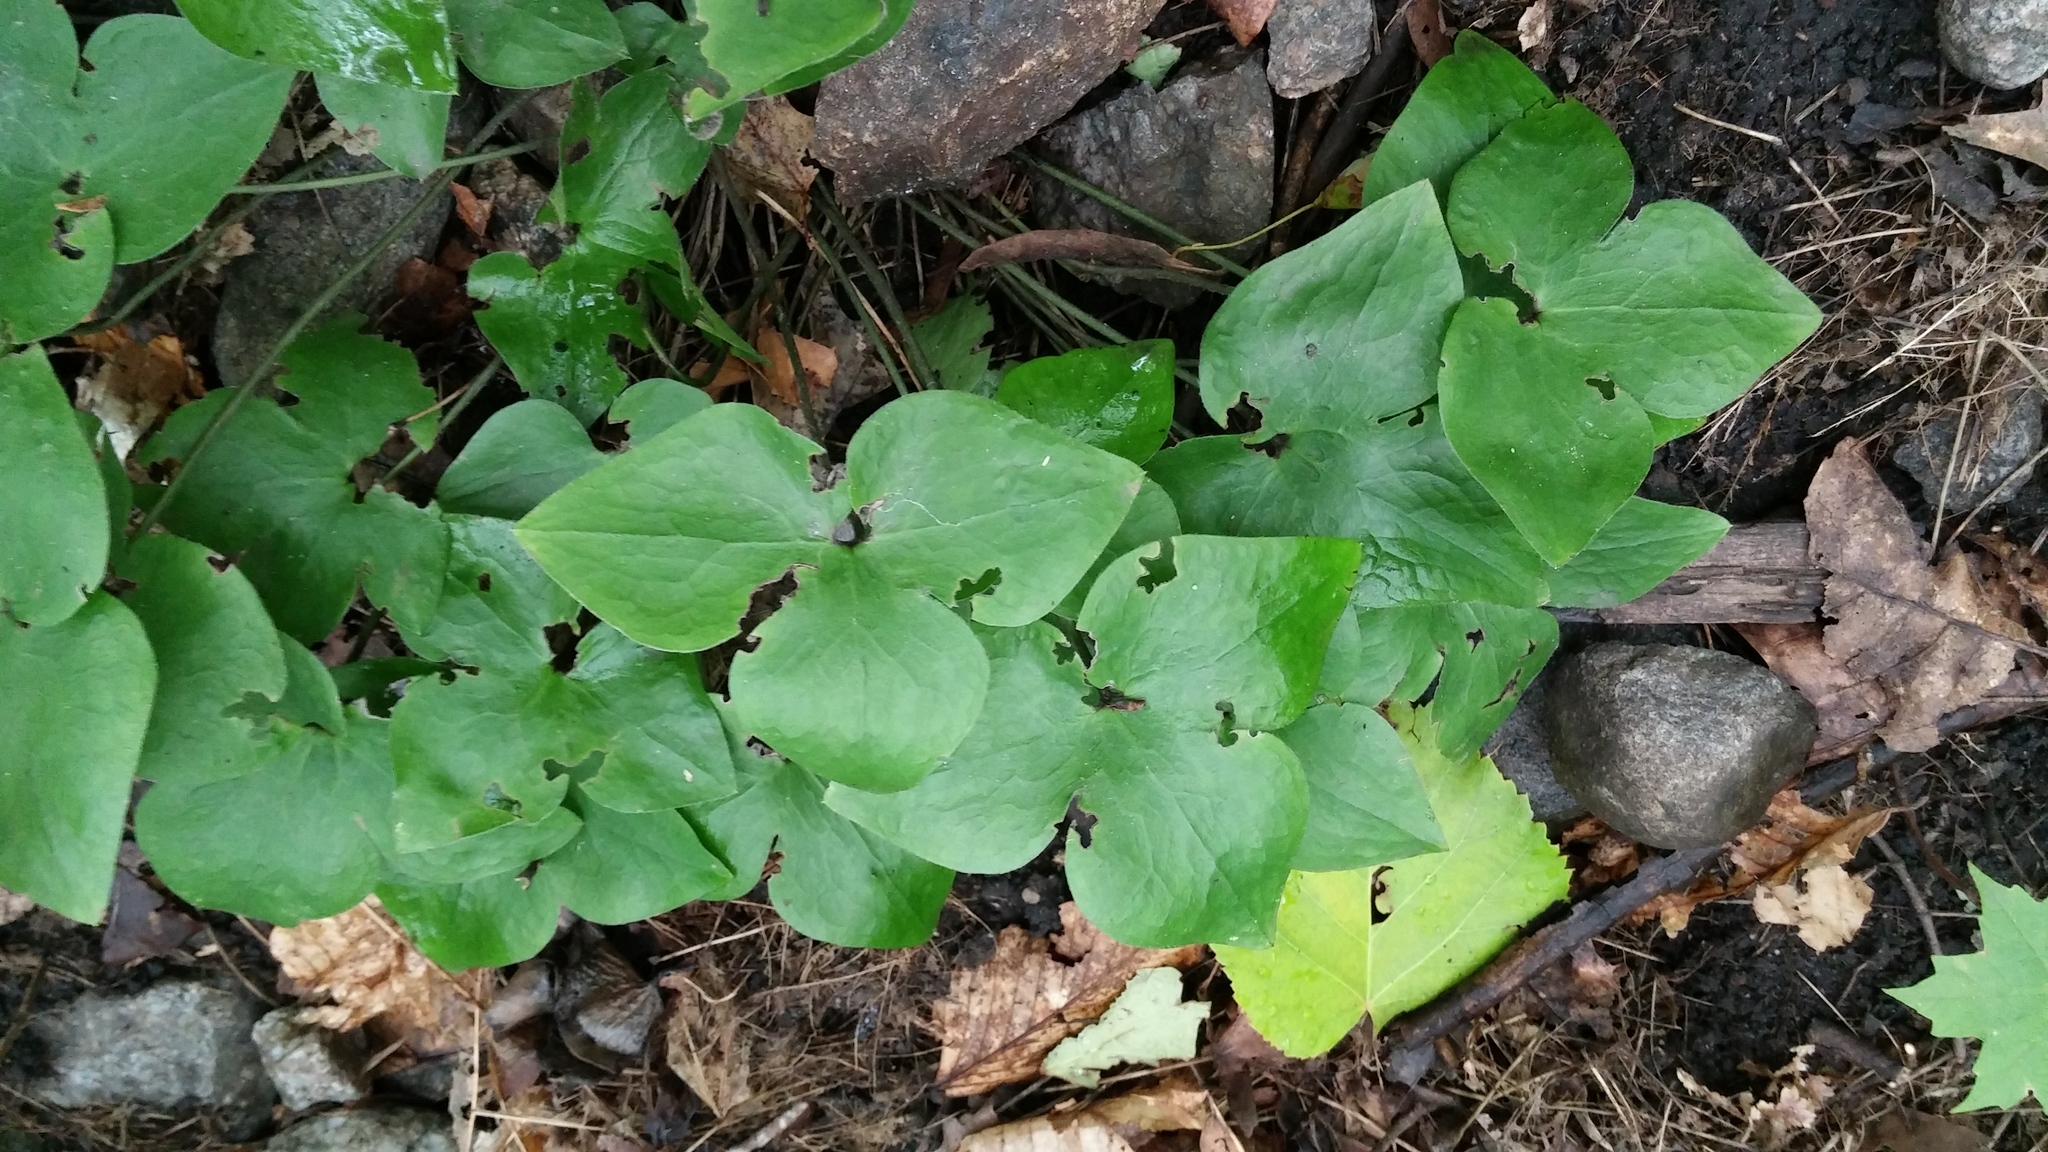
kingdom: Plantae
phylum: Tracheophyta
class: Magnoliopsida
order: Ranunculales
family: Ranunculaceae
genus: Hepatica
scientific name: Hepatica acutiloba
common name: Sharp-lobed hepatica
